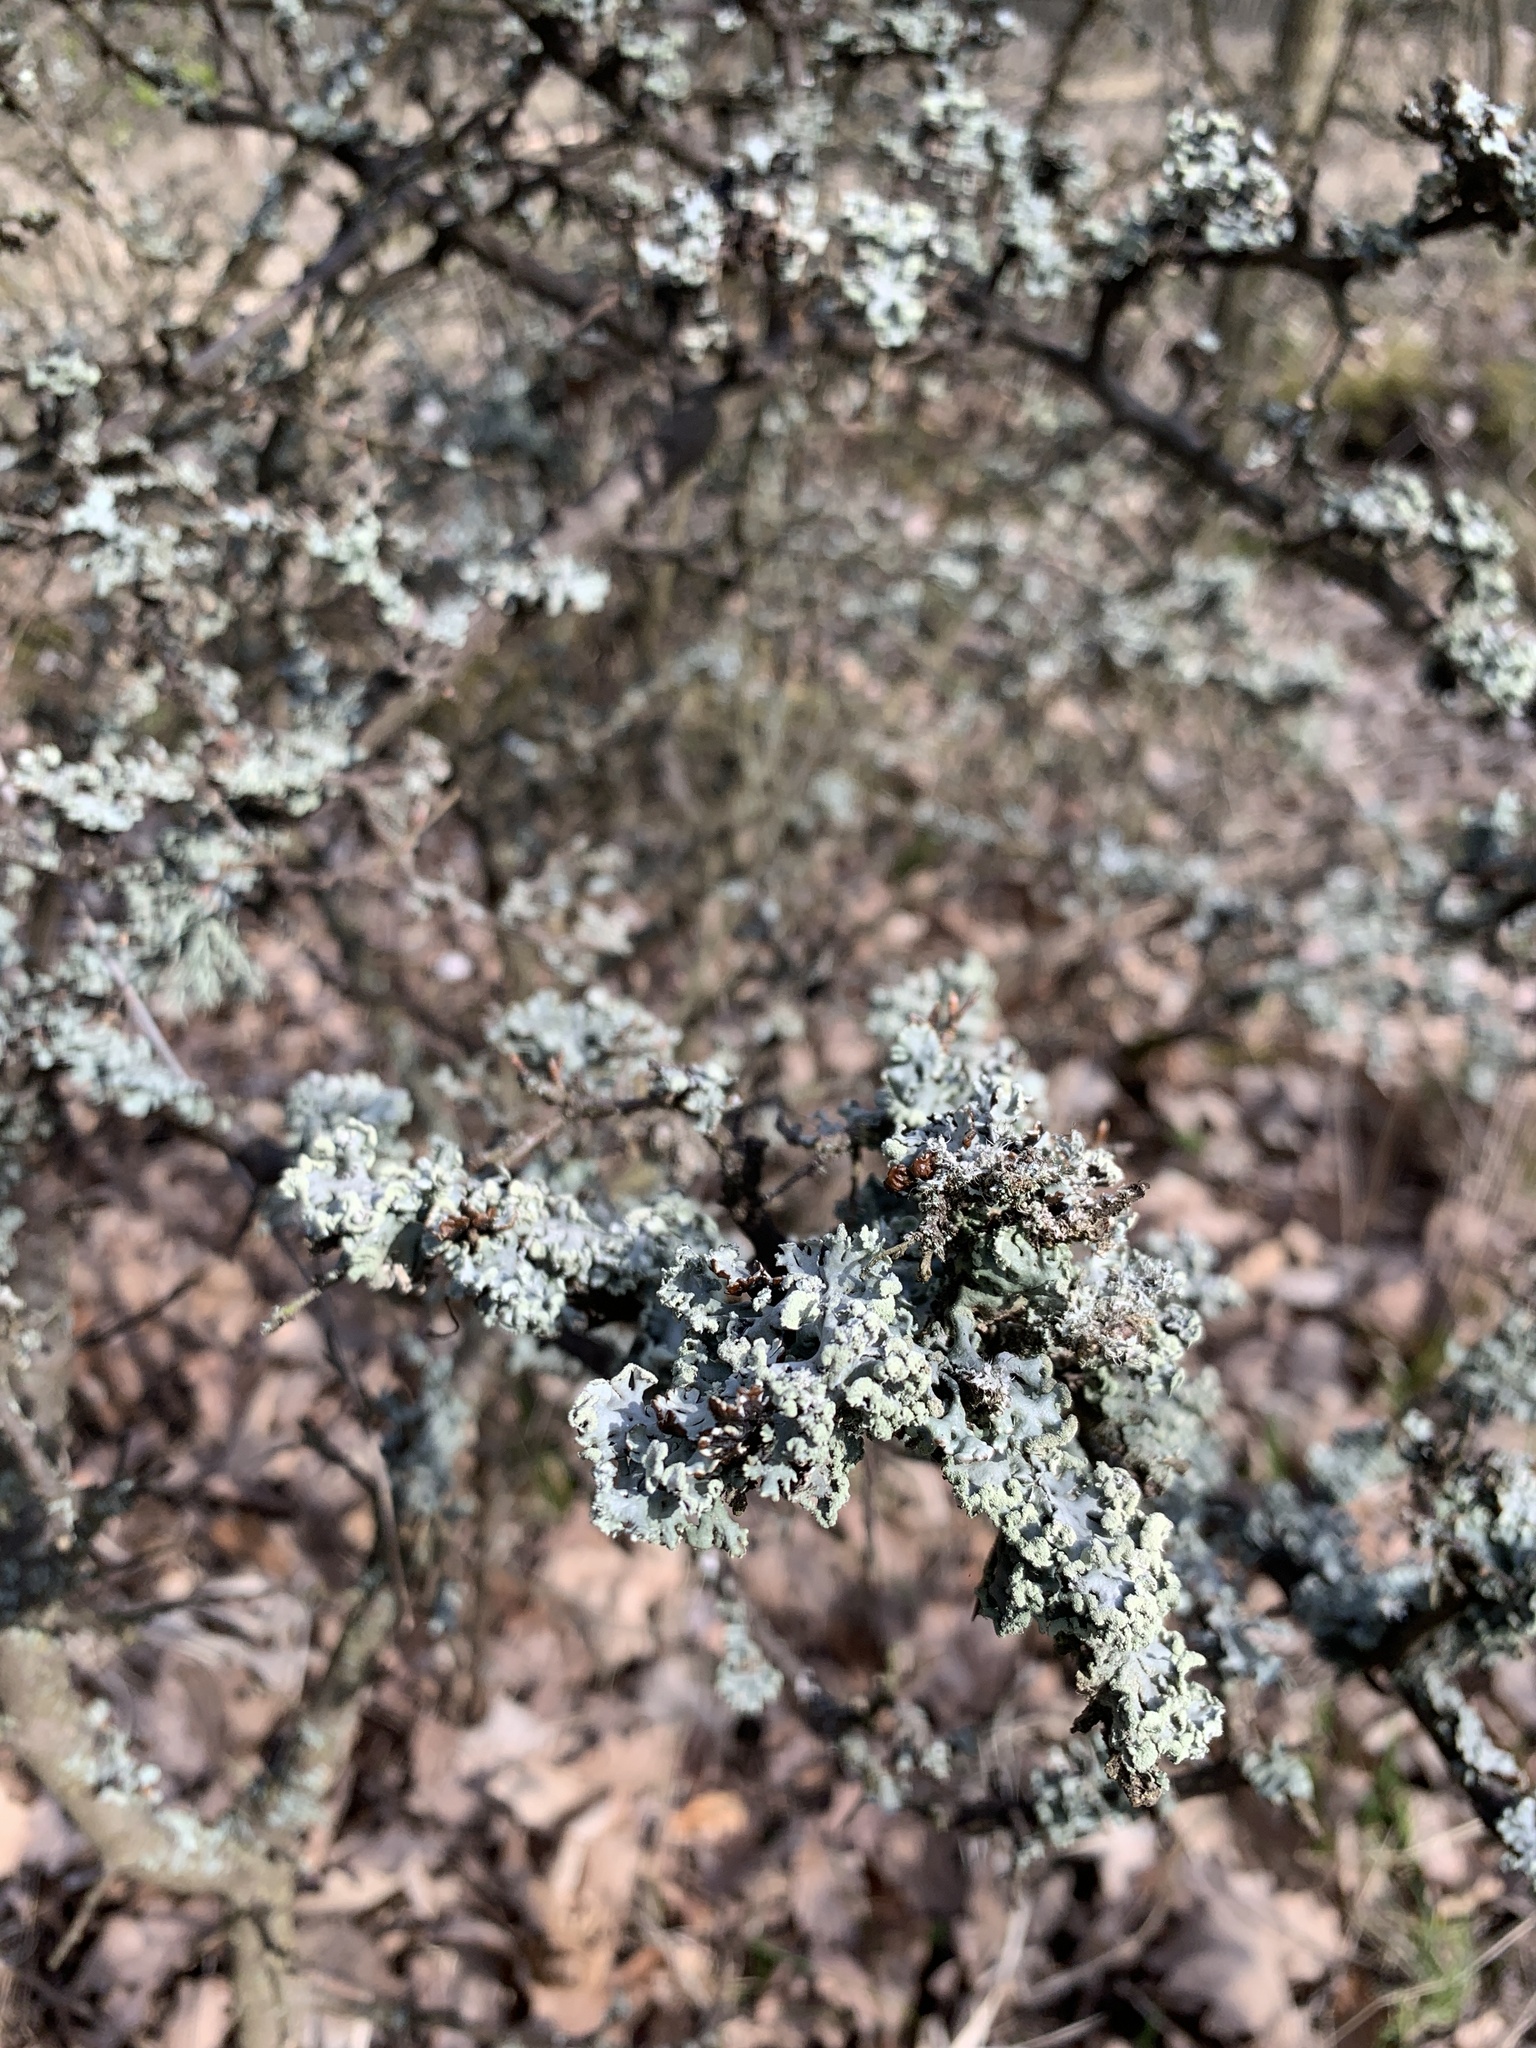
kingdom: Fungi
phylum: Ascomycota
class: Lecanoromycetes
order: Lecanorales
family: Parmeliaceae
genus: Hypogymnia
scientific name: Hypogymnia physodes
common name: Dark crottle
